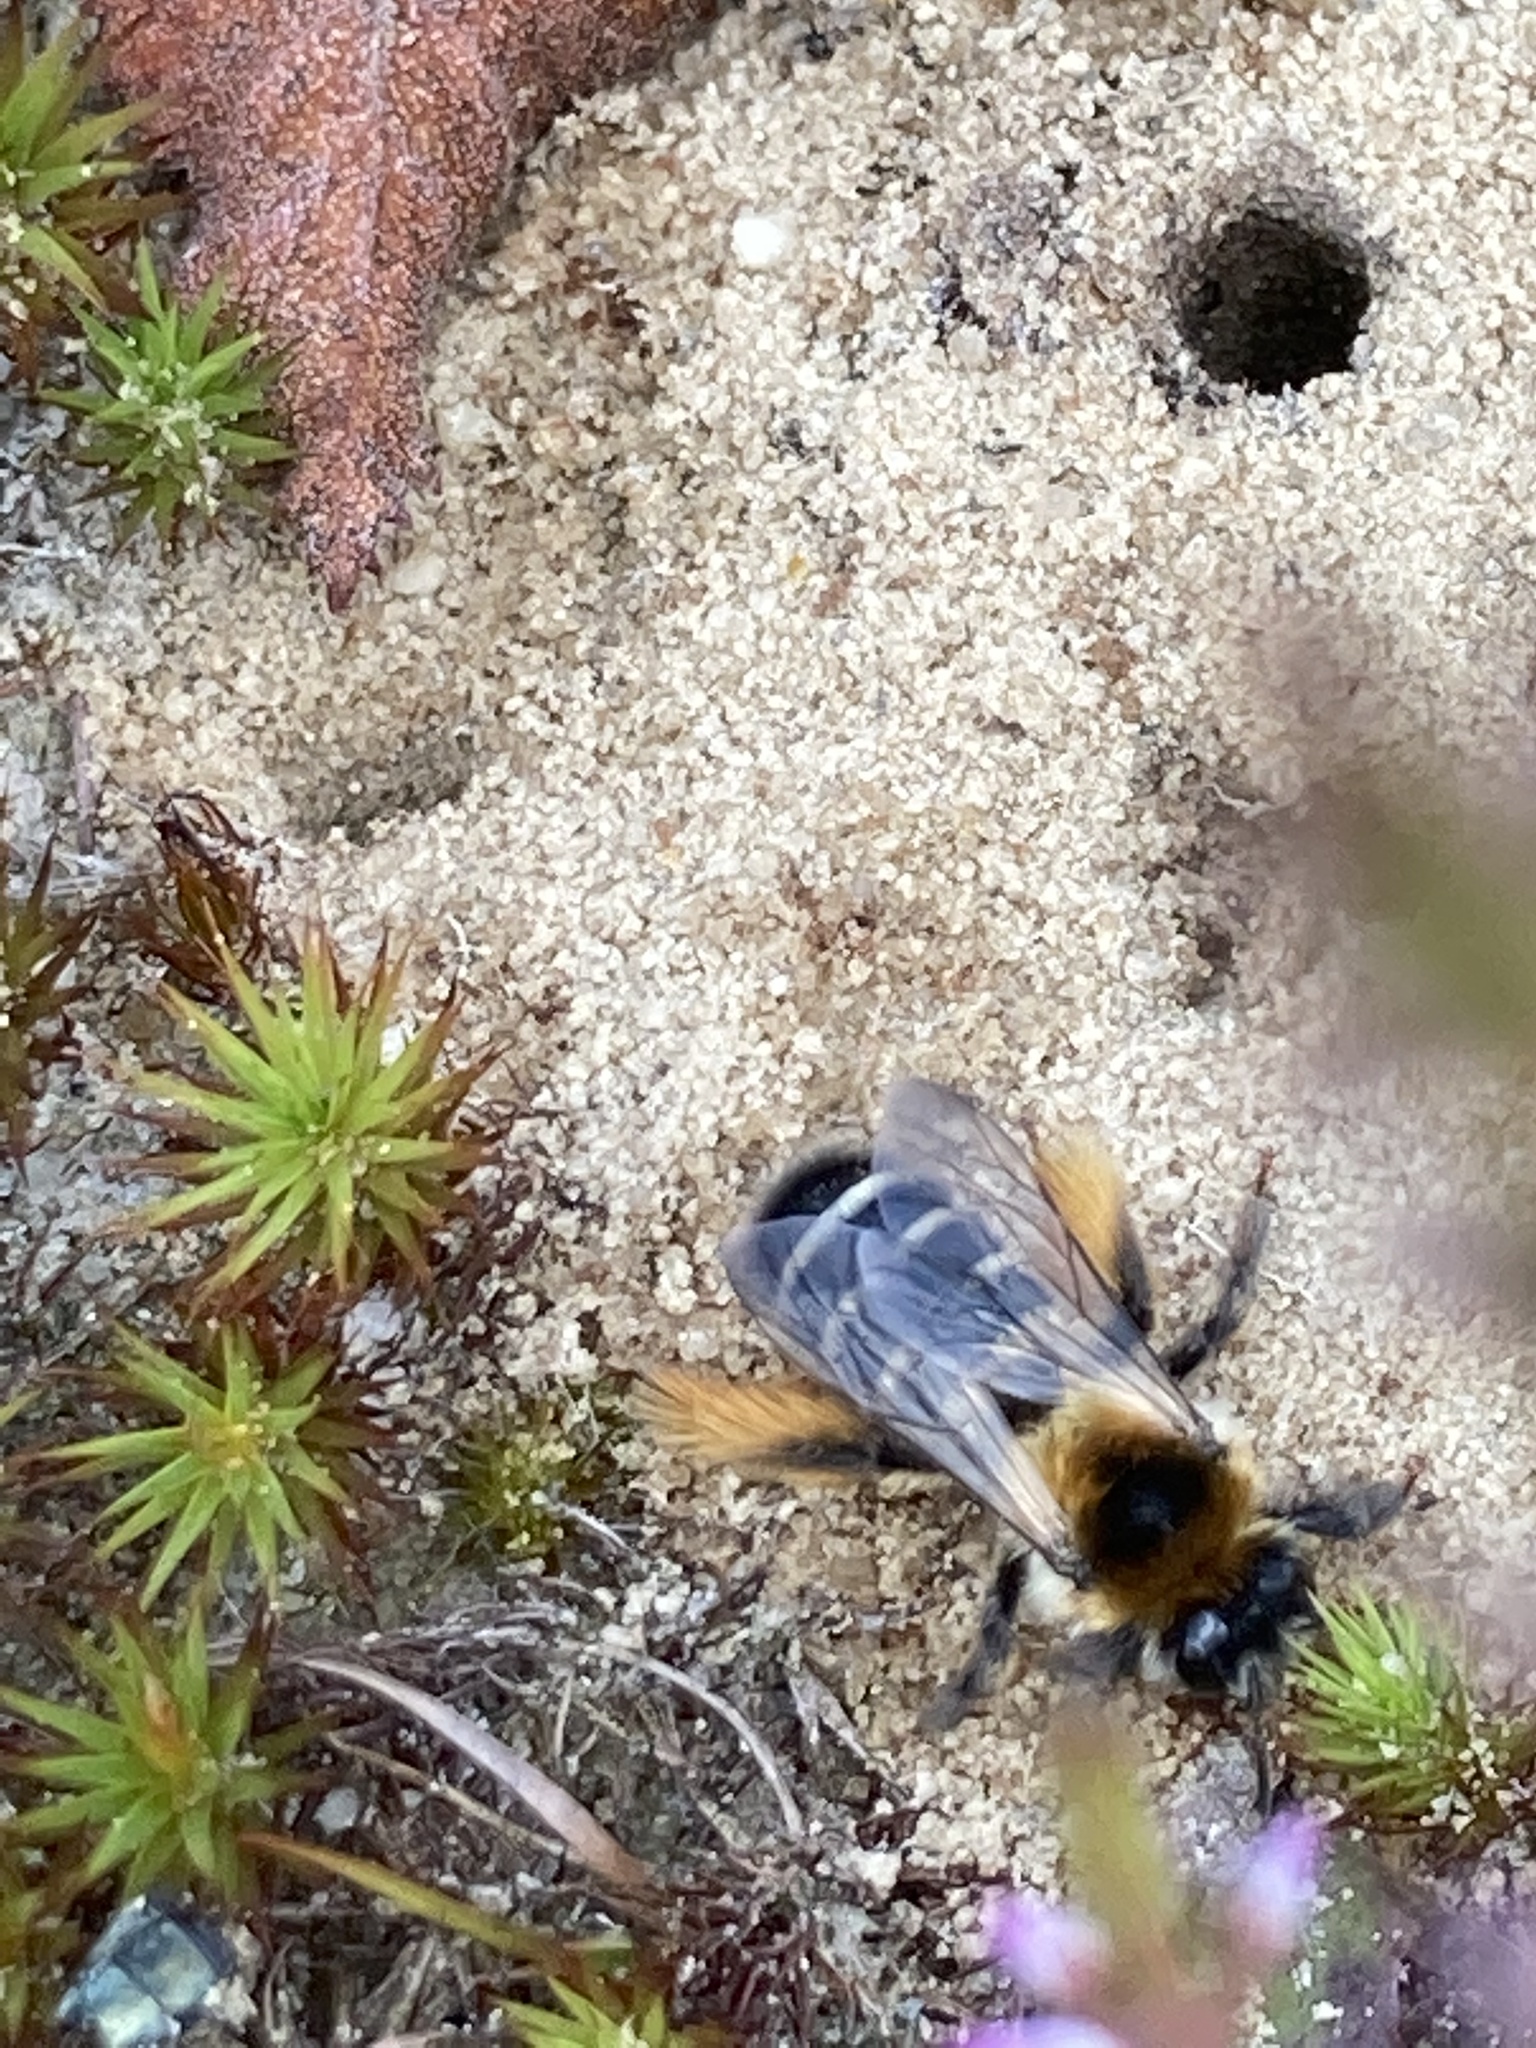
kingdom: Animalia
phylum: Arthropoda
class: Insecta
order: Hymenoptera
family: Melittidae
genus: Dasypoda
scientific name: Dasypoda hirtipes
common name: Pantaloon bee
